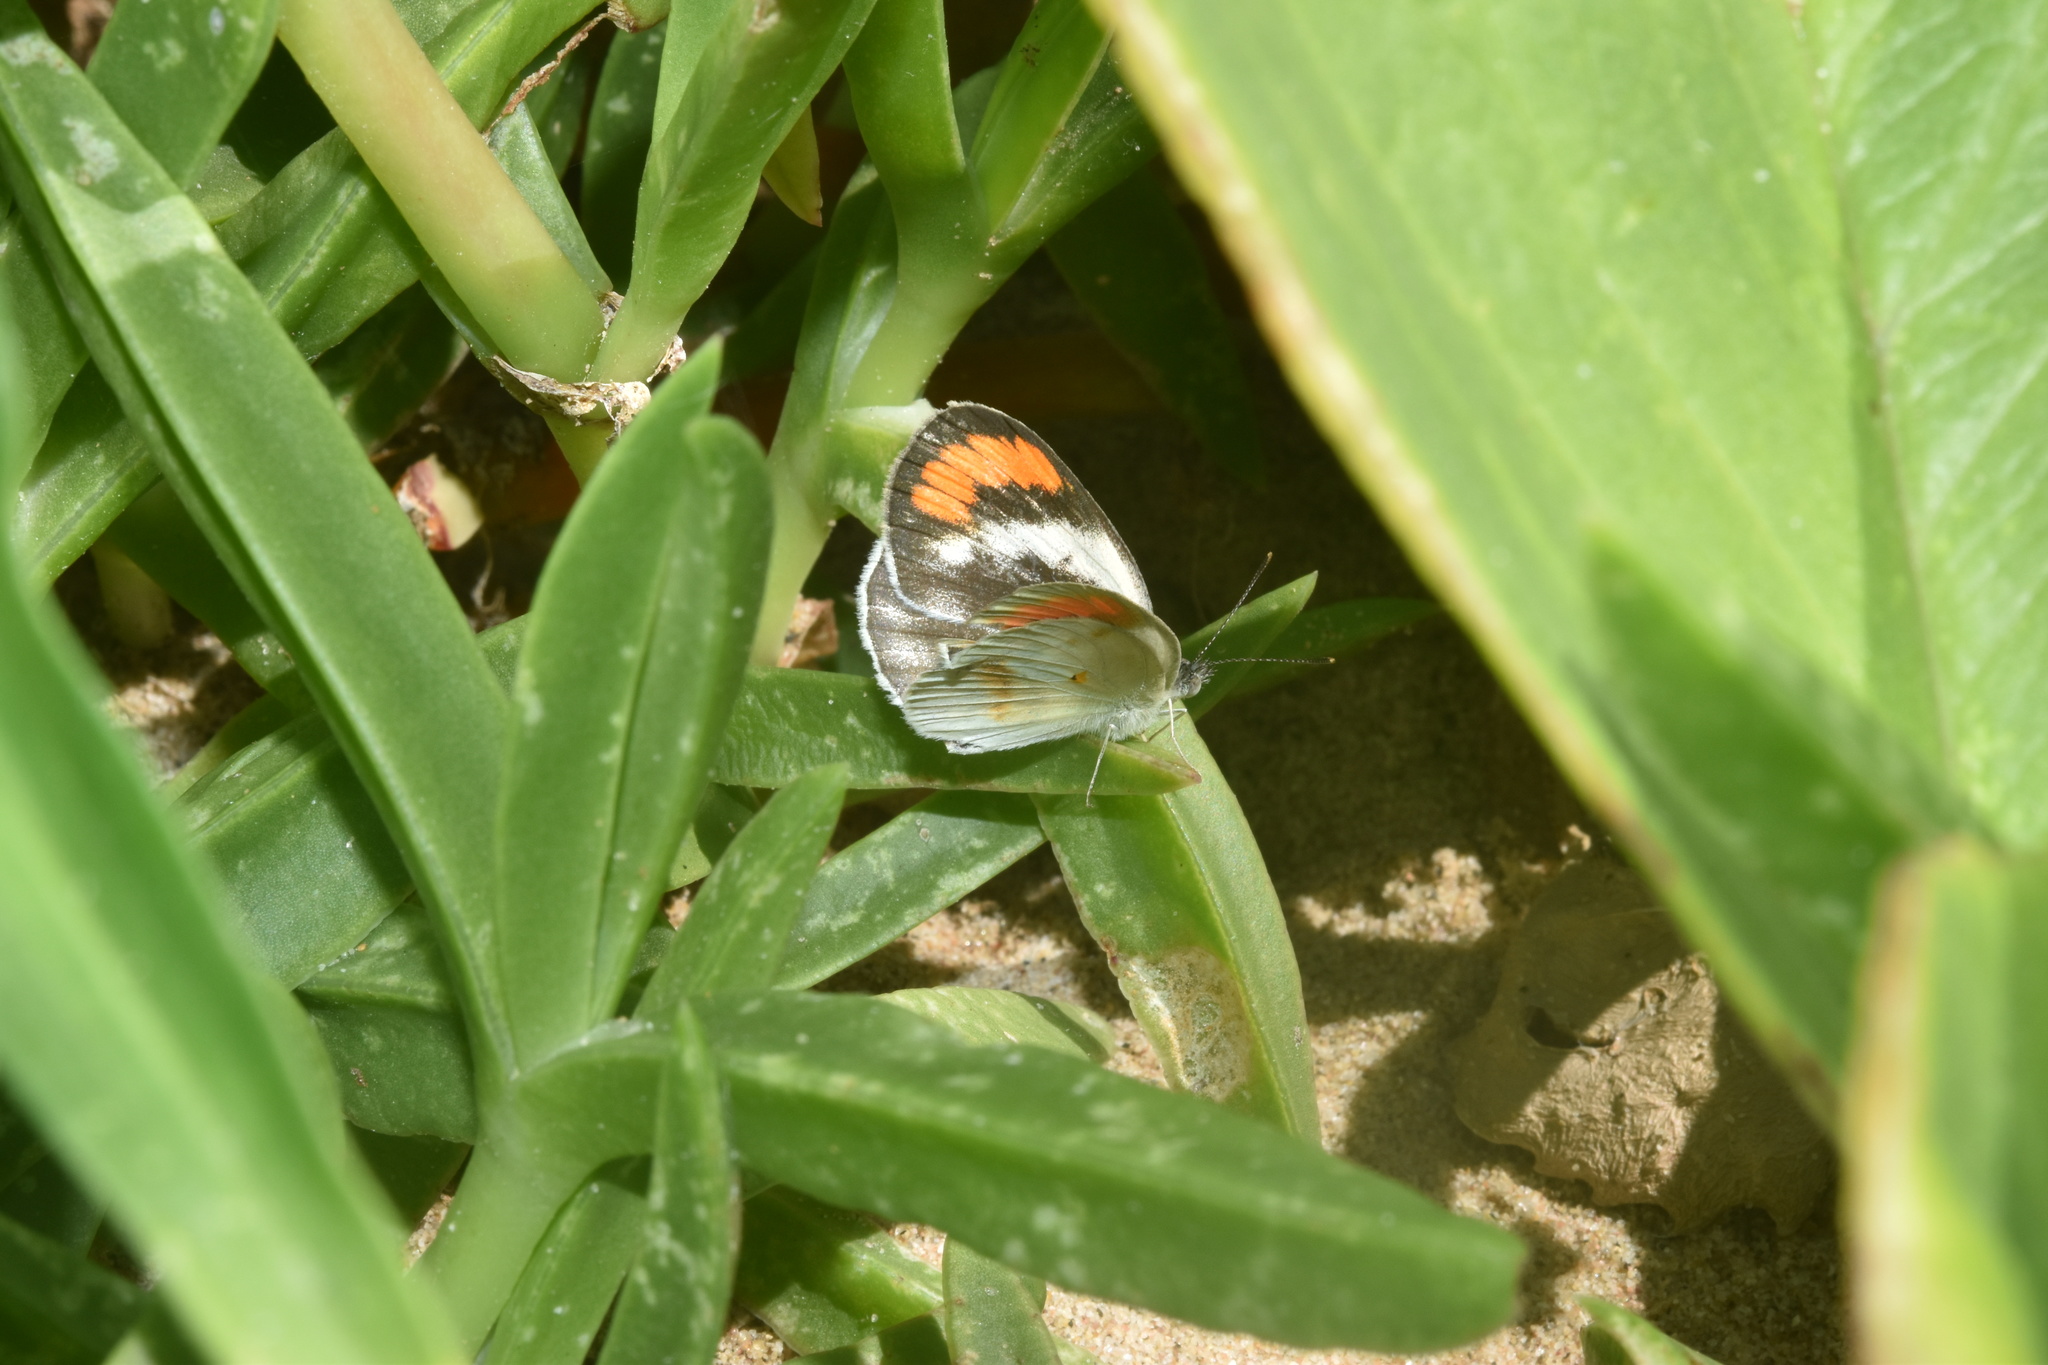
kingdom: Animalia
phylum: Arthropoda
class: Insecta
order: Lepidoptera
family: Pieridae
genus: Colotis
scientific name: Colotis euippe
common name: Round-winged orange tip
